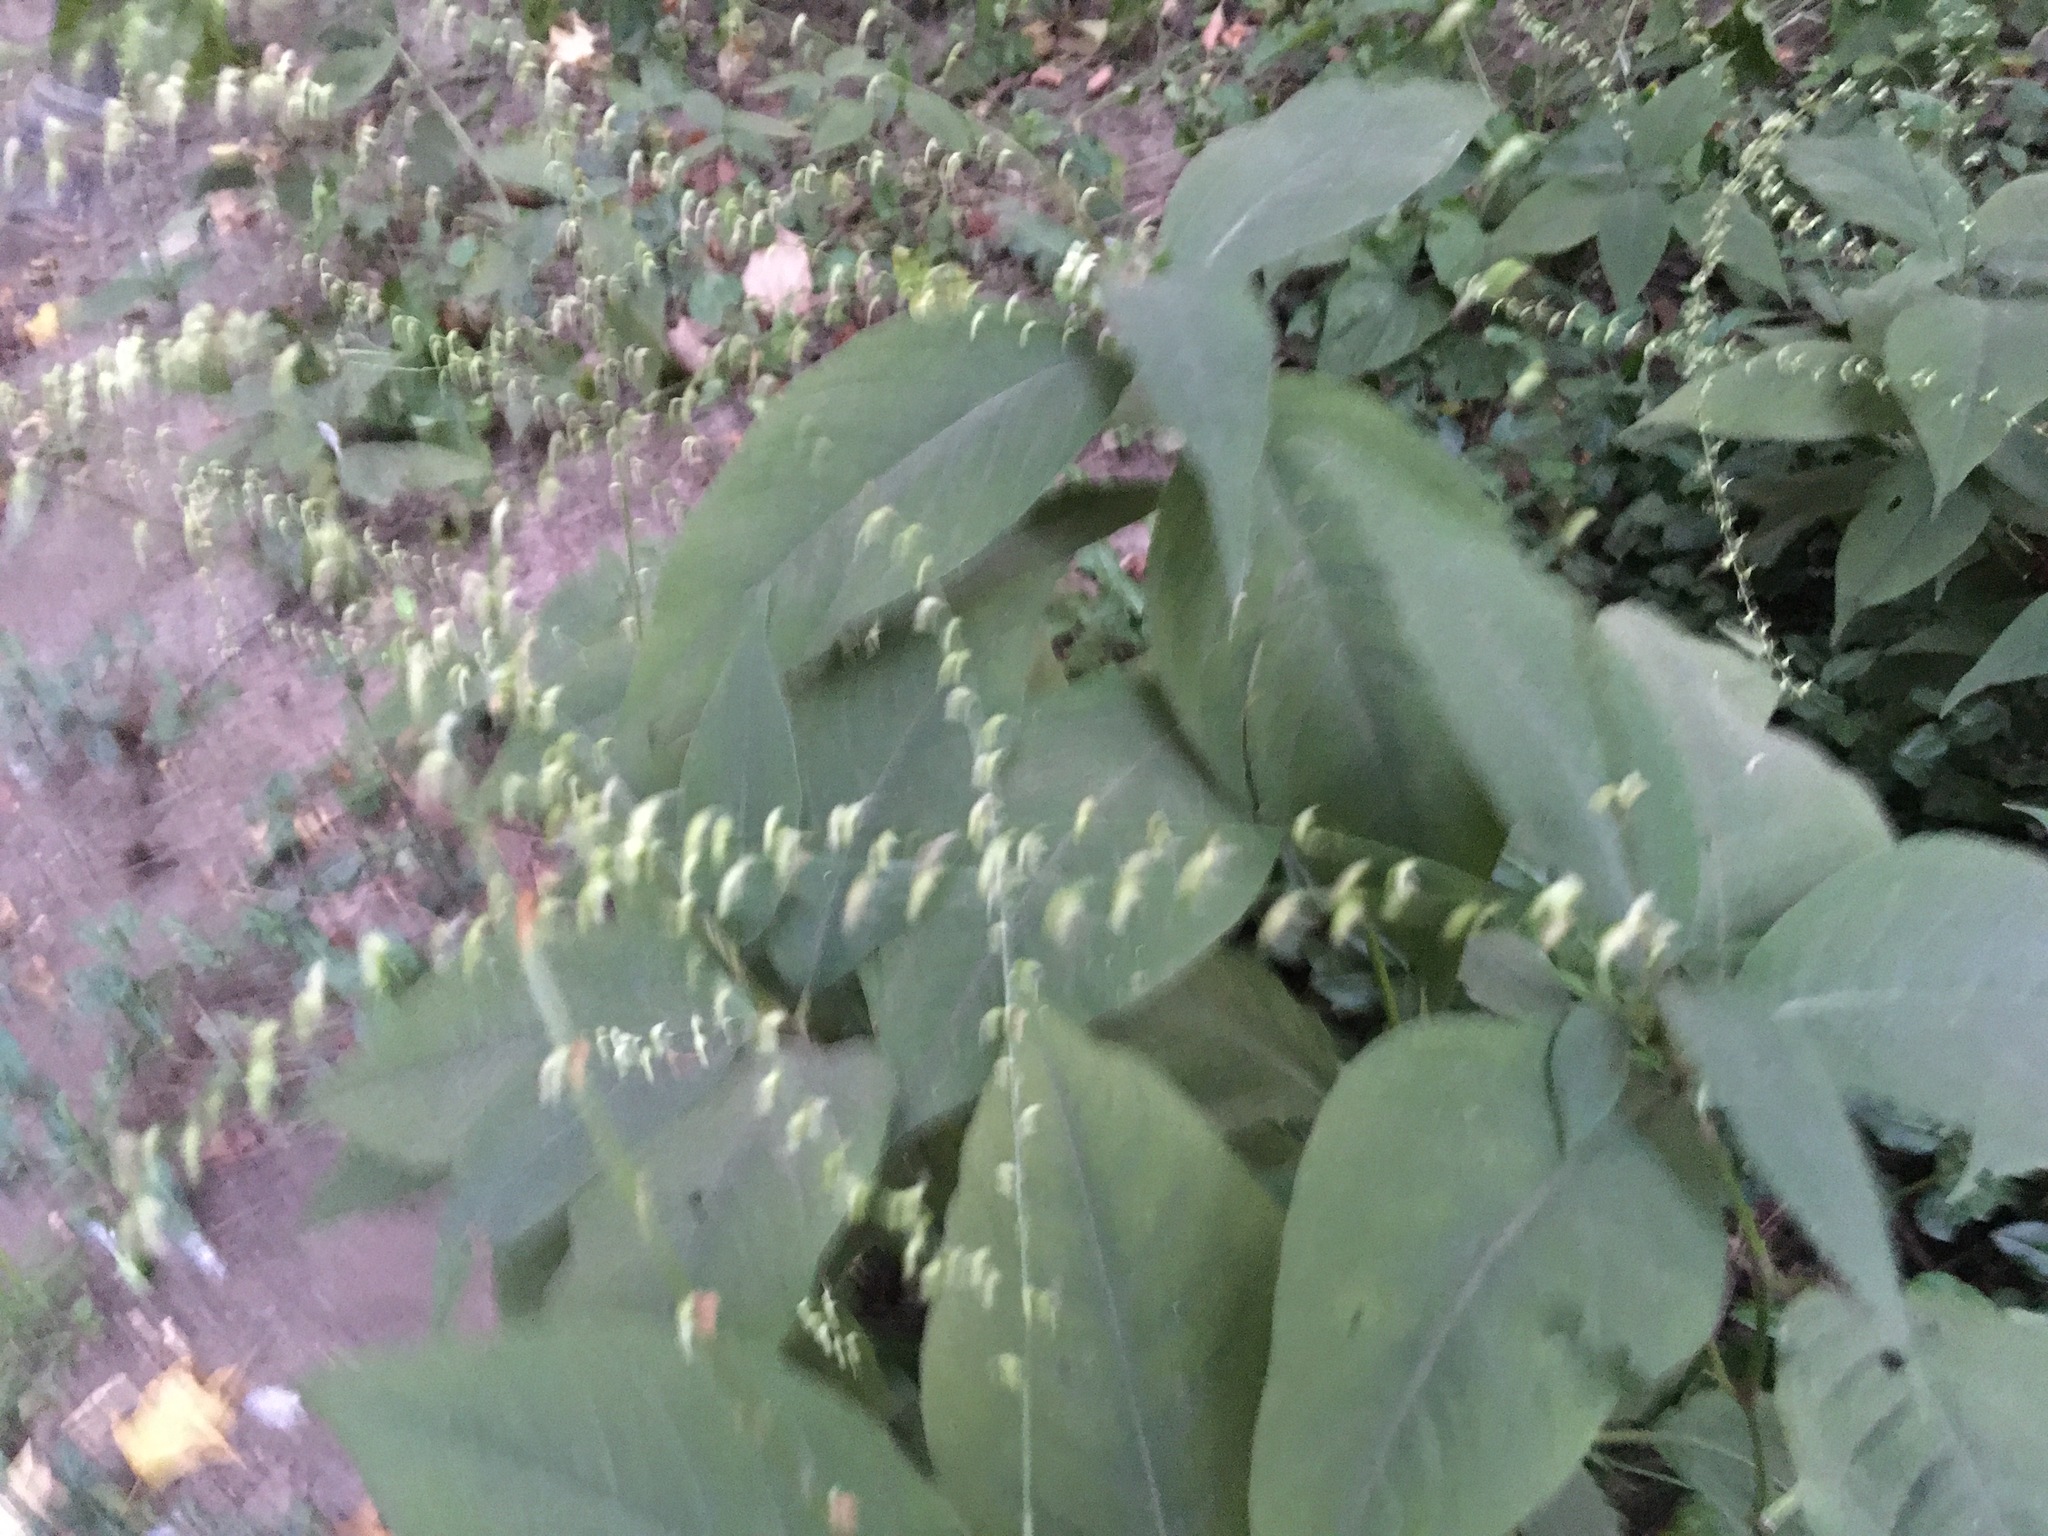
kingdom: Plantae
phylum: Tracheophyta
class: Magnoliopsida
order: Caryophyllales
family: Polygonaceae
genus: Persicaria
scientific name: Persicaria virginiana
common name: Jumpseed
